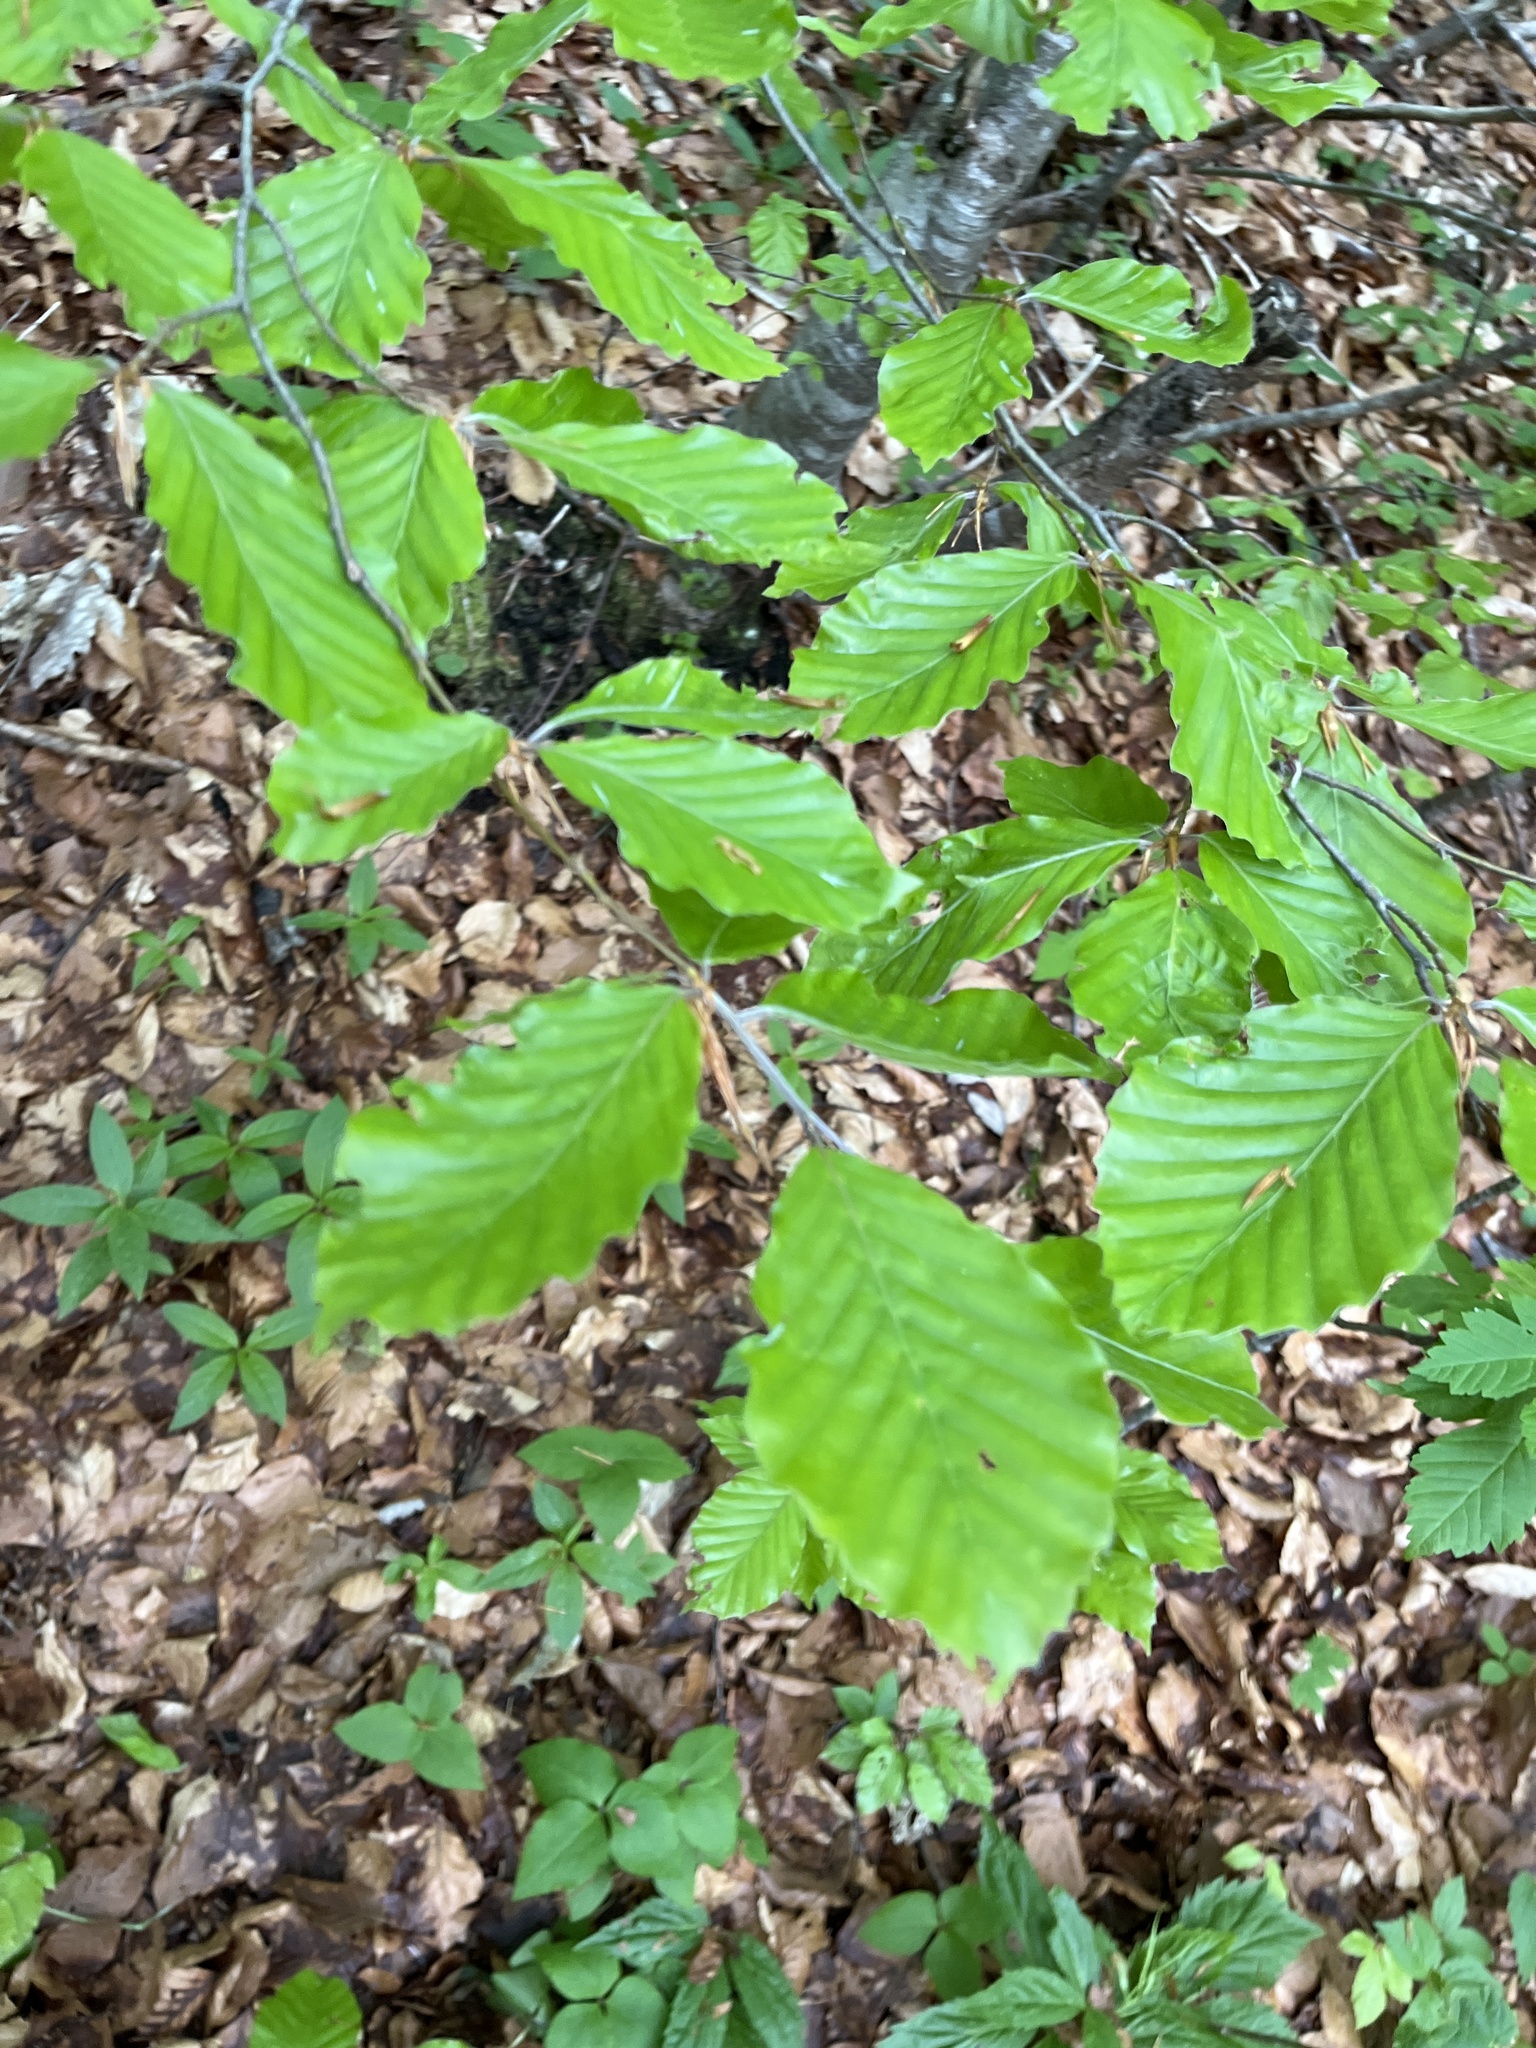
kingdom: Plantae
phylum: Tracheophyta
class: Magnoliopsida
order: Fagales
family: Fagaceae
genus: Fagus
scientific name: Fagus sylvatica
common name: Beech
